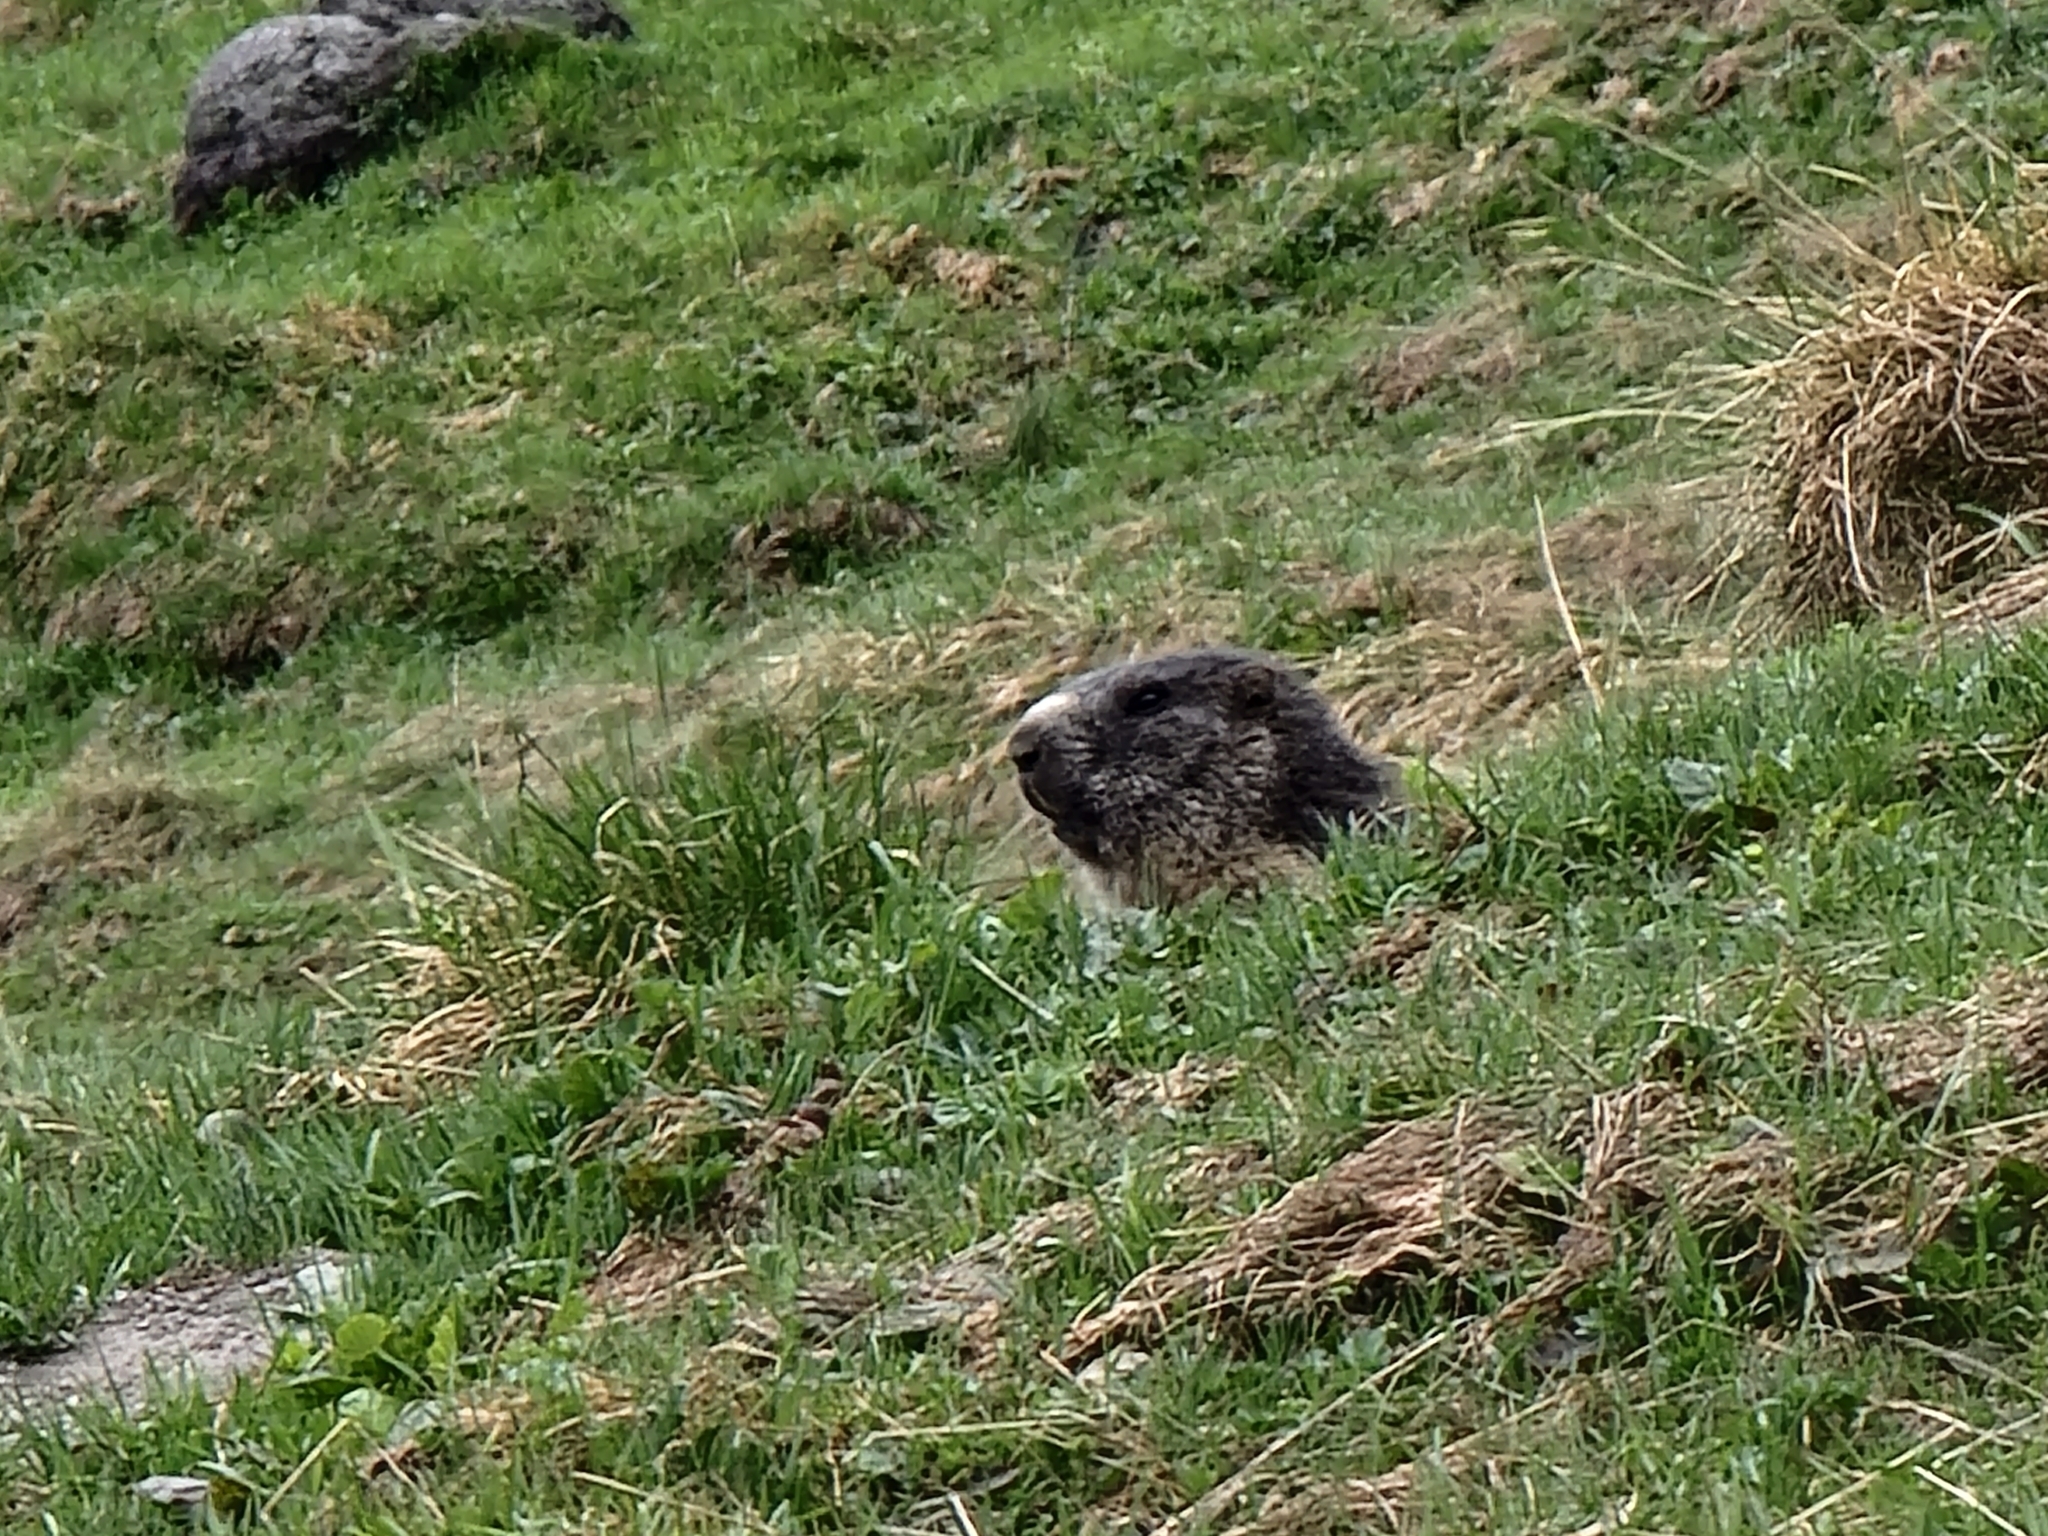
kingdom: Animalia
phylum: Chordata
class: Mammalia
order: Rodentia
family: Sciuridae
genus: Marmota
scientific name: Marmota marmota
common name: Alpine marmot
